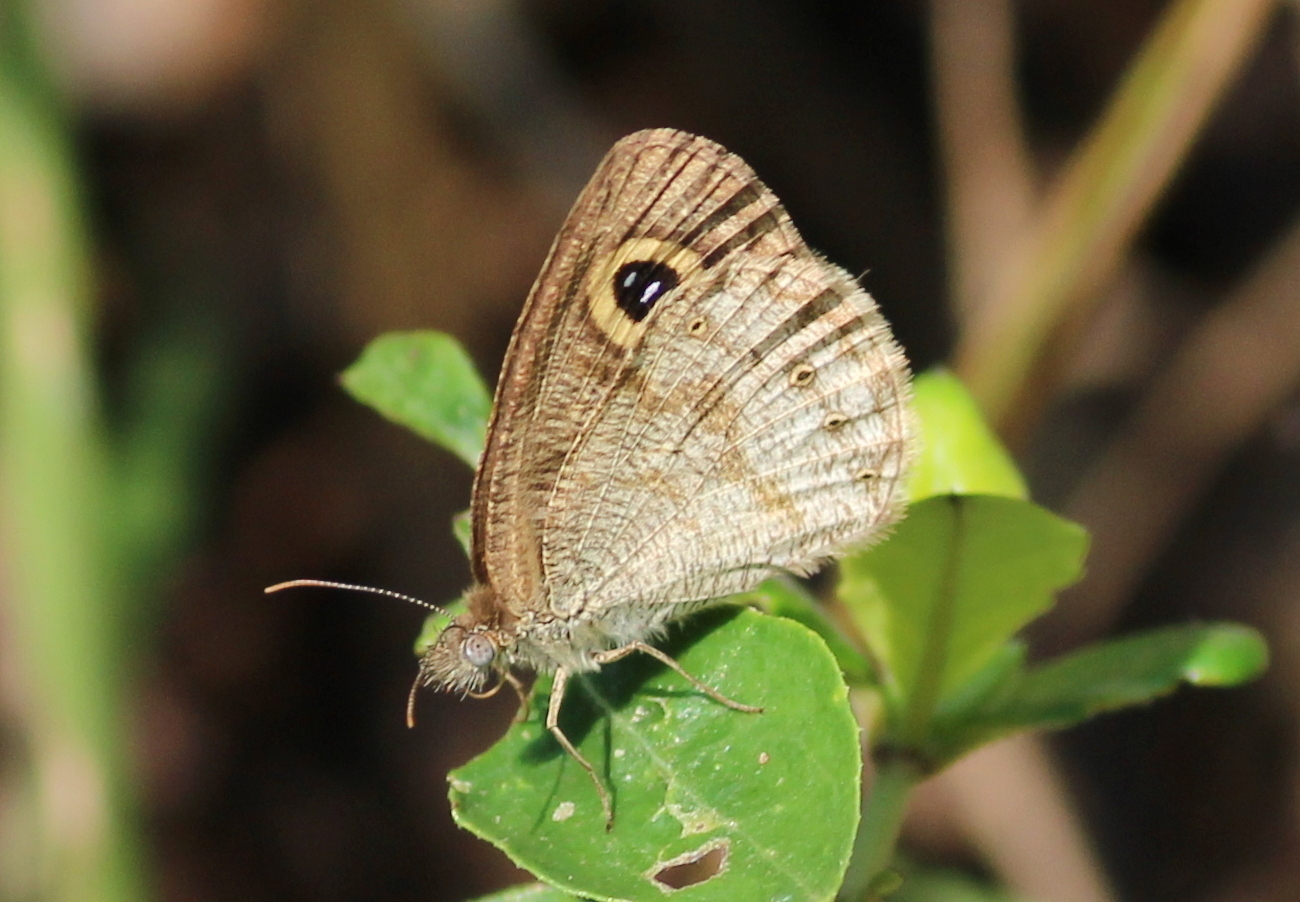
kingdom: Animalia
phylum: Arthropoda
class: Insecta
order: Lepidoptera
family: Nymphalidae
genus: Ypthima
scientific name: Ypthima huebneri
